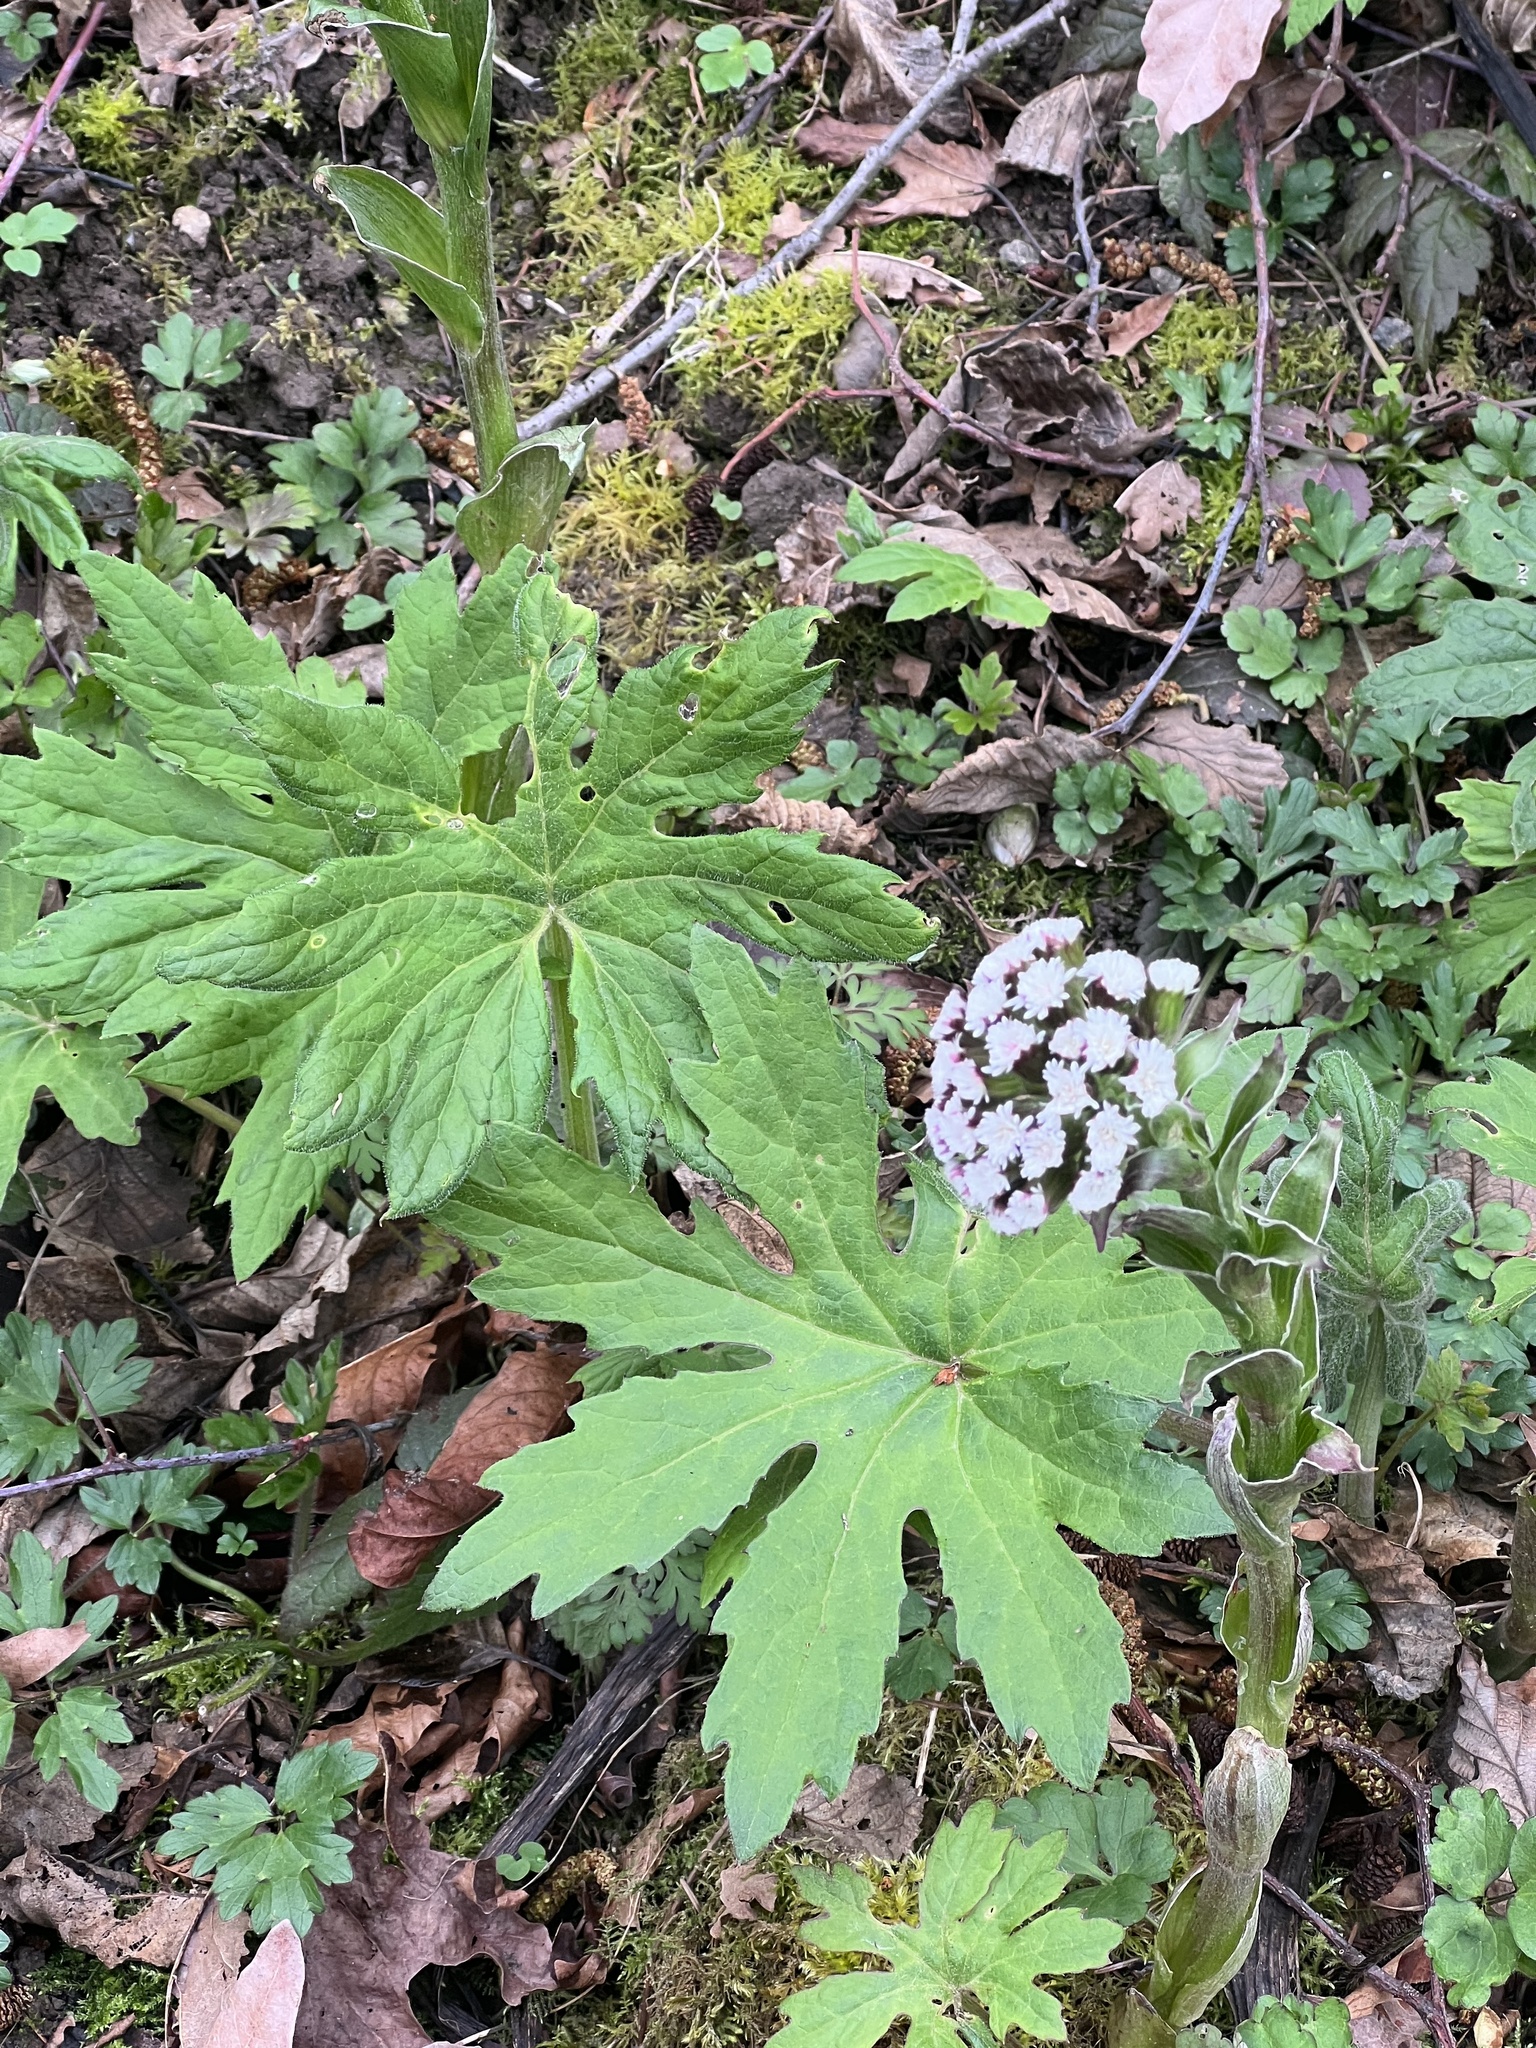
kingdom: Plantae
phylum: Tracheophyta
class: Magnoliopsida
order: Asterales
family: Asteraceae
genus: Petasites
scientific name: Petasites frigidus
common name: Arctic butterbur
